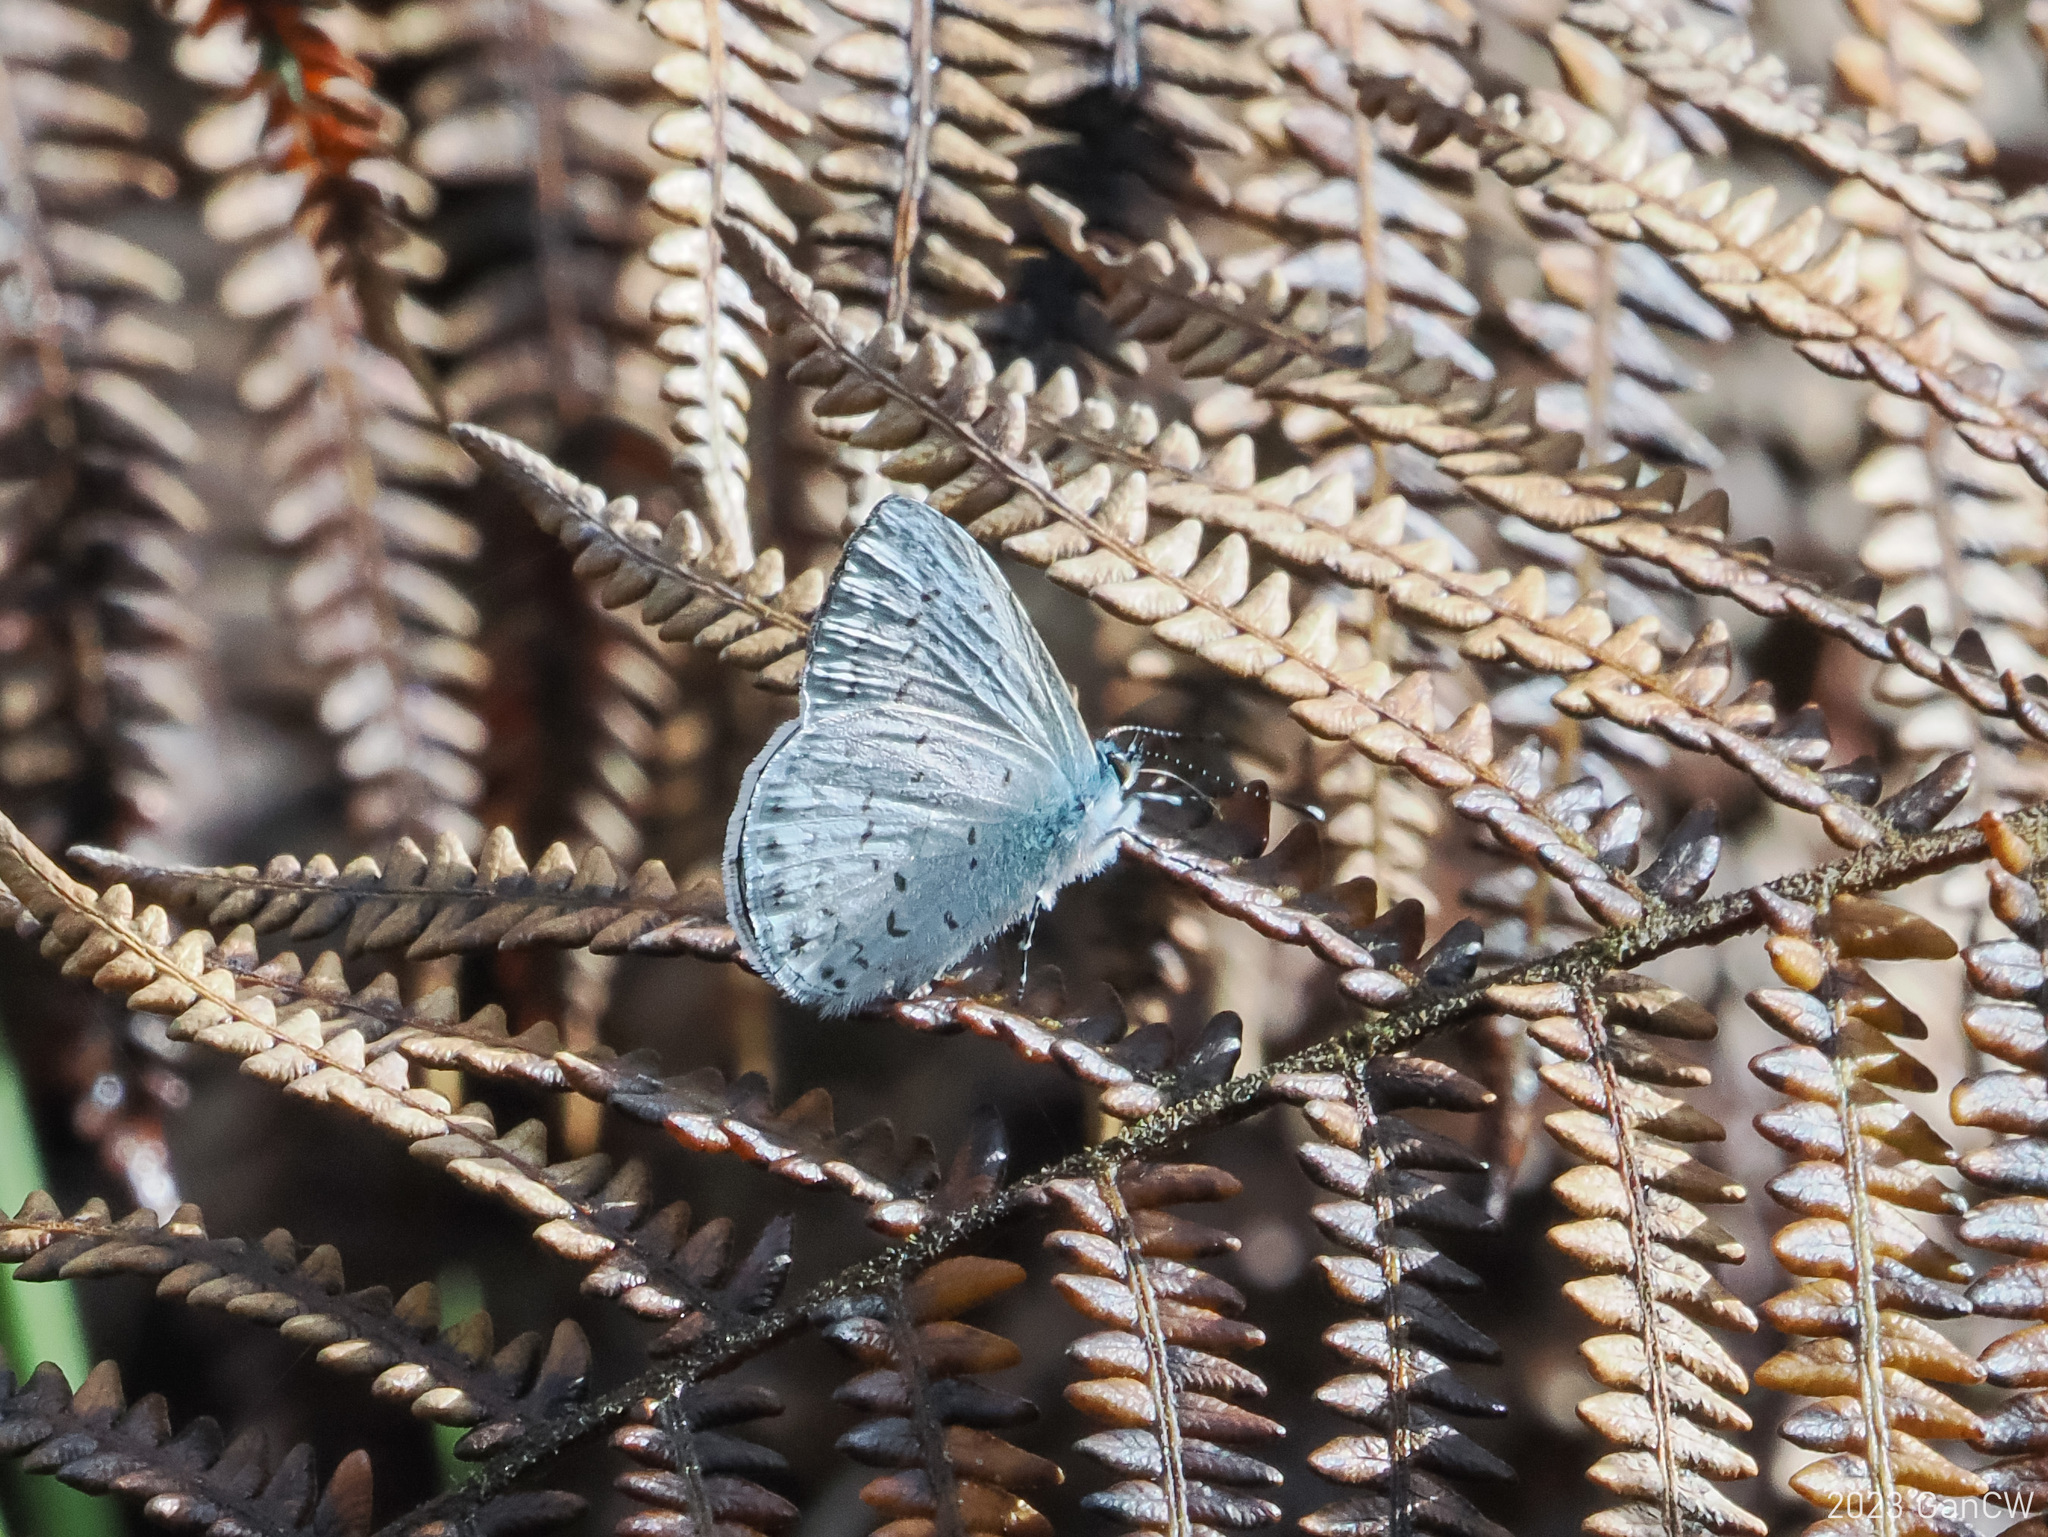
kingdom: Animalia
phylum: Arthropoda
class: Insecta
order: Lepidoptera
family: Lycaenidae
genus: Uranobothria
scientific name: Uranobothria celebica
